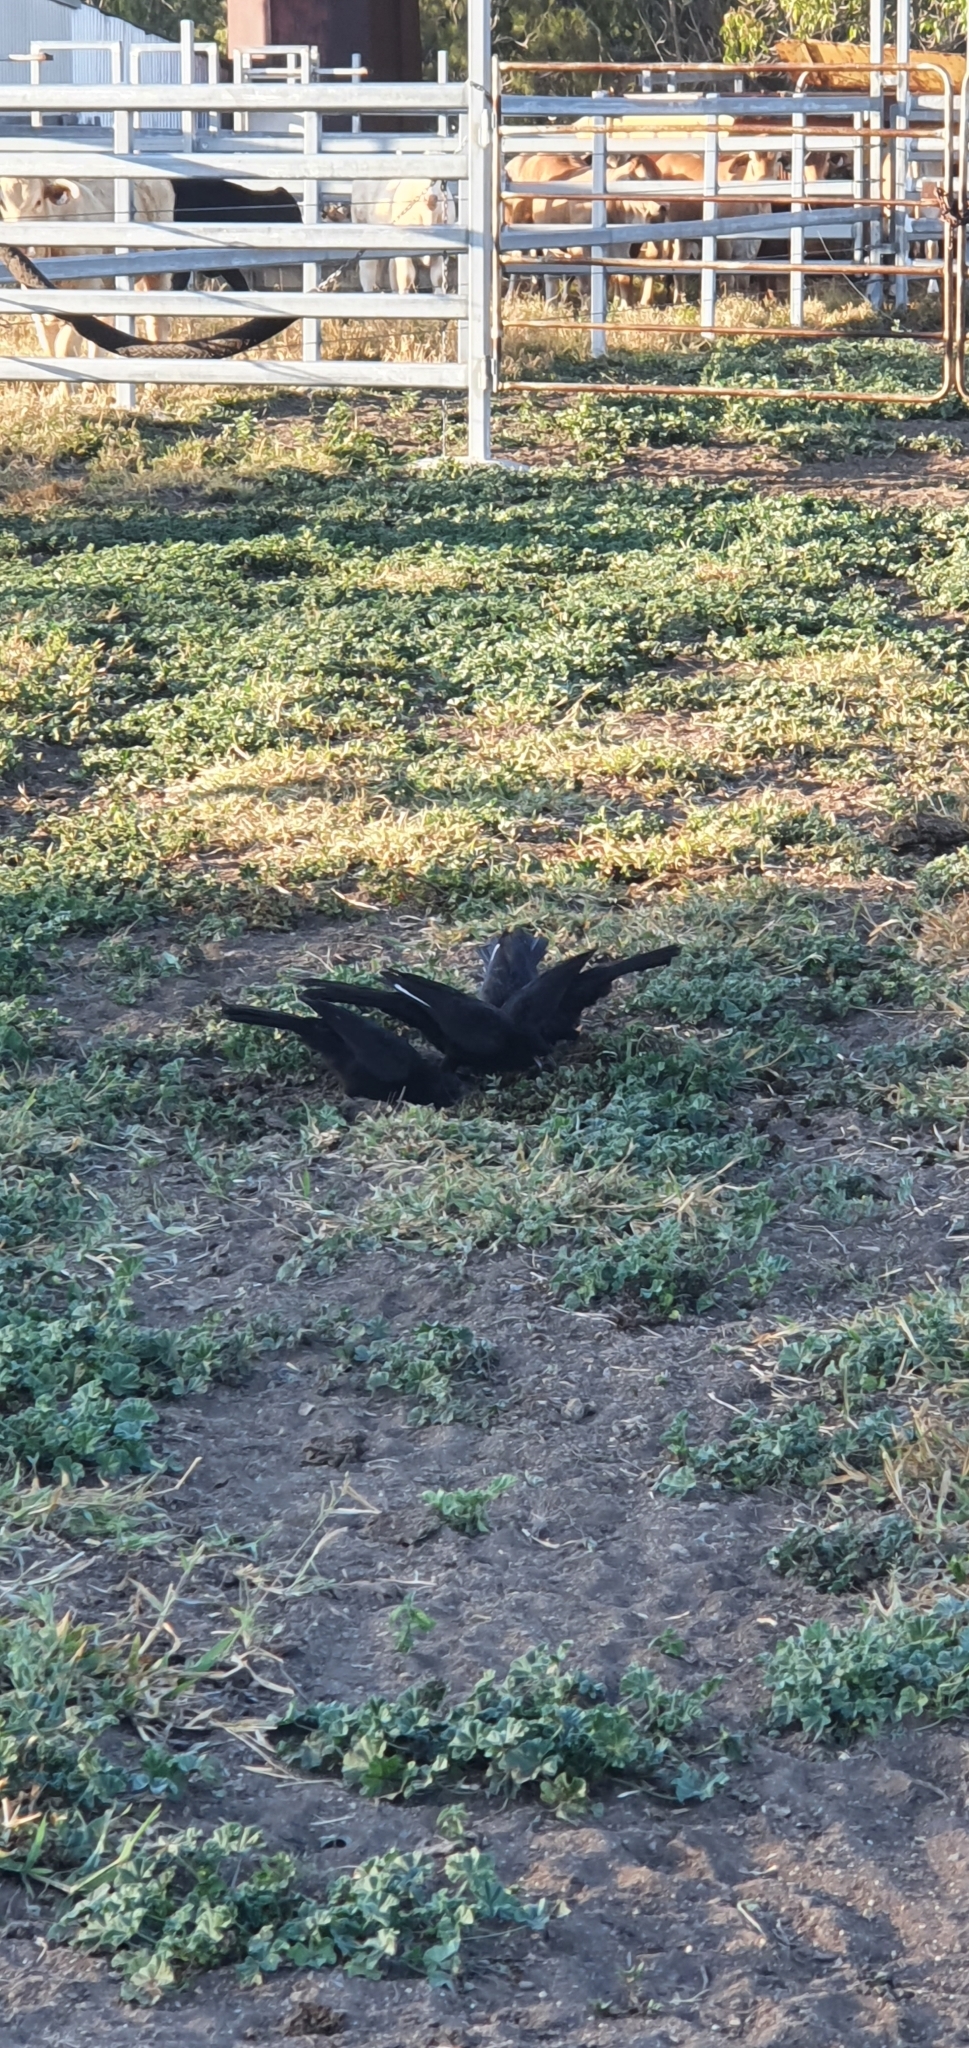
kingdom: Animalia
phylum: Chordata
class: Aves
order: Passeriformes
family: Corcoracidae
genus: Corcorax
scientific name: Corcorax melanoramphos
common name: White-winged chough
